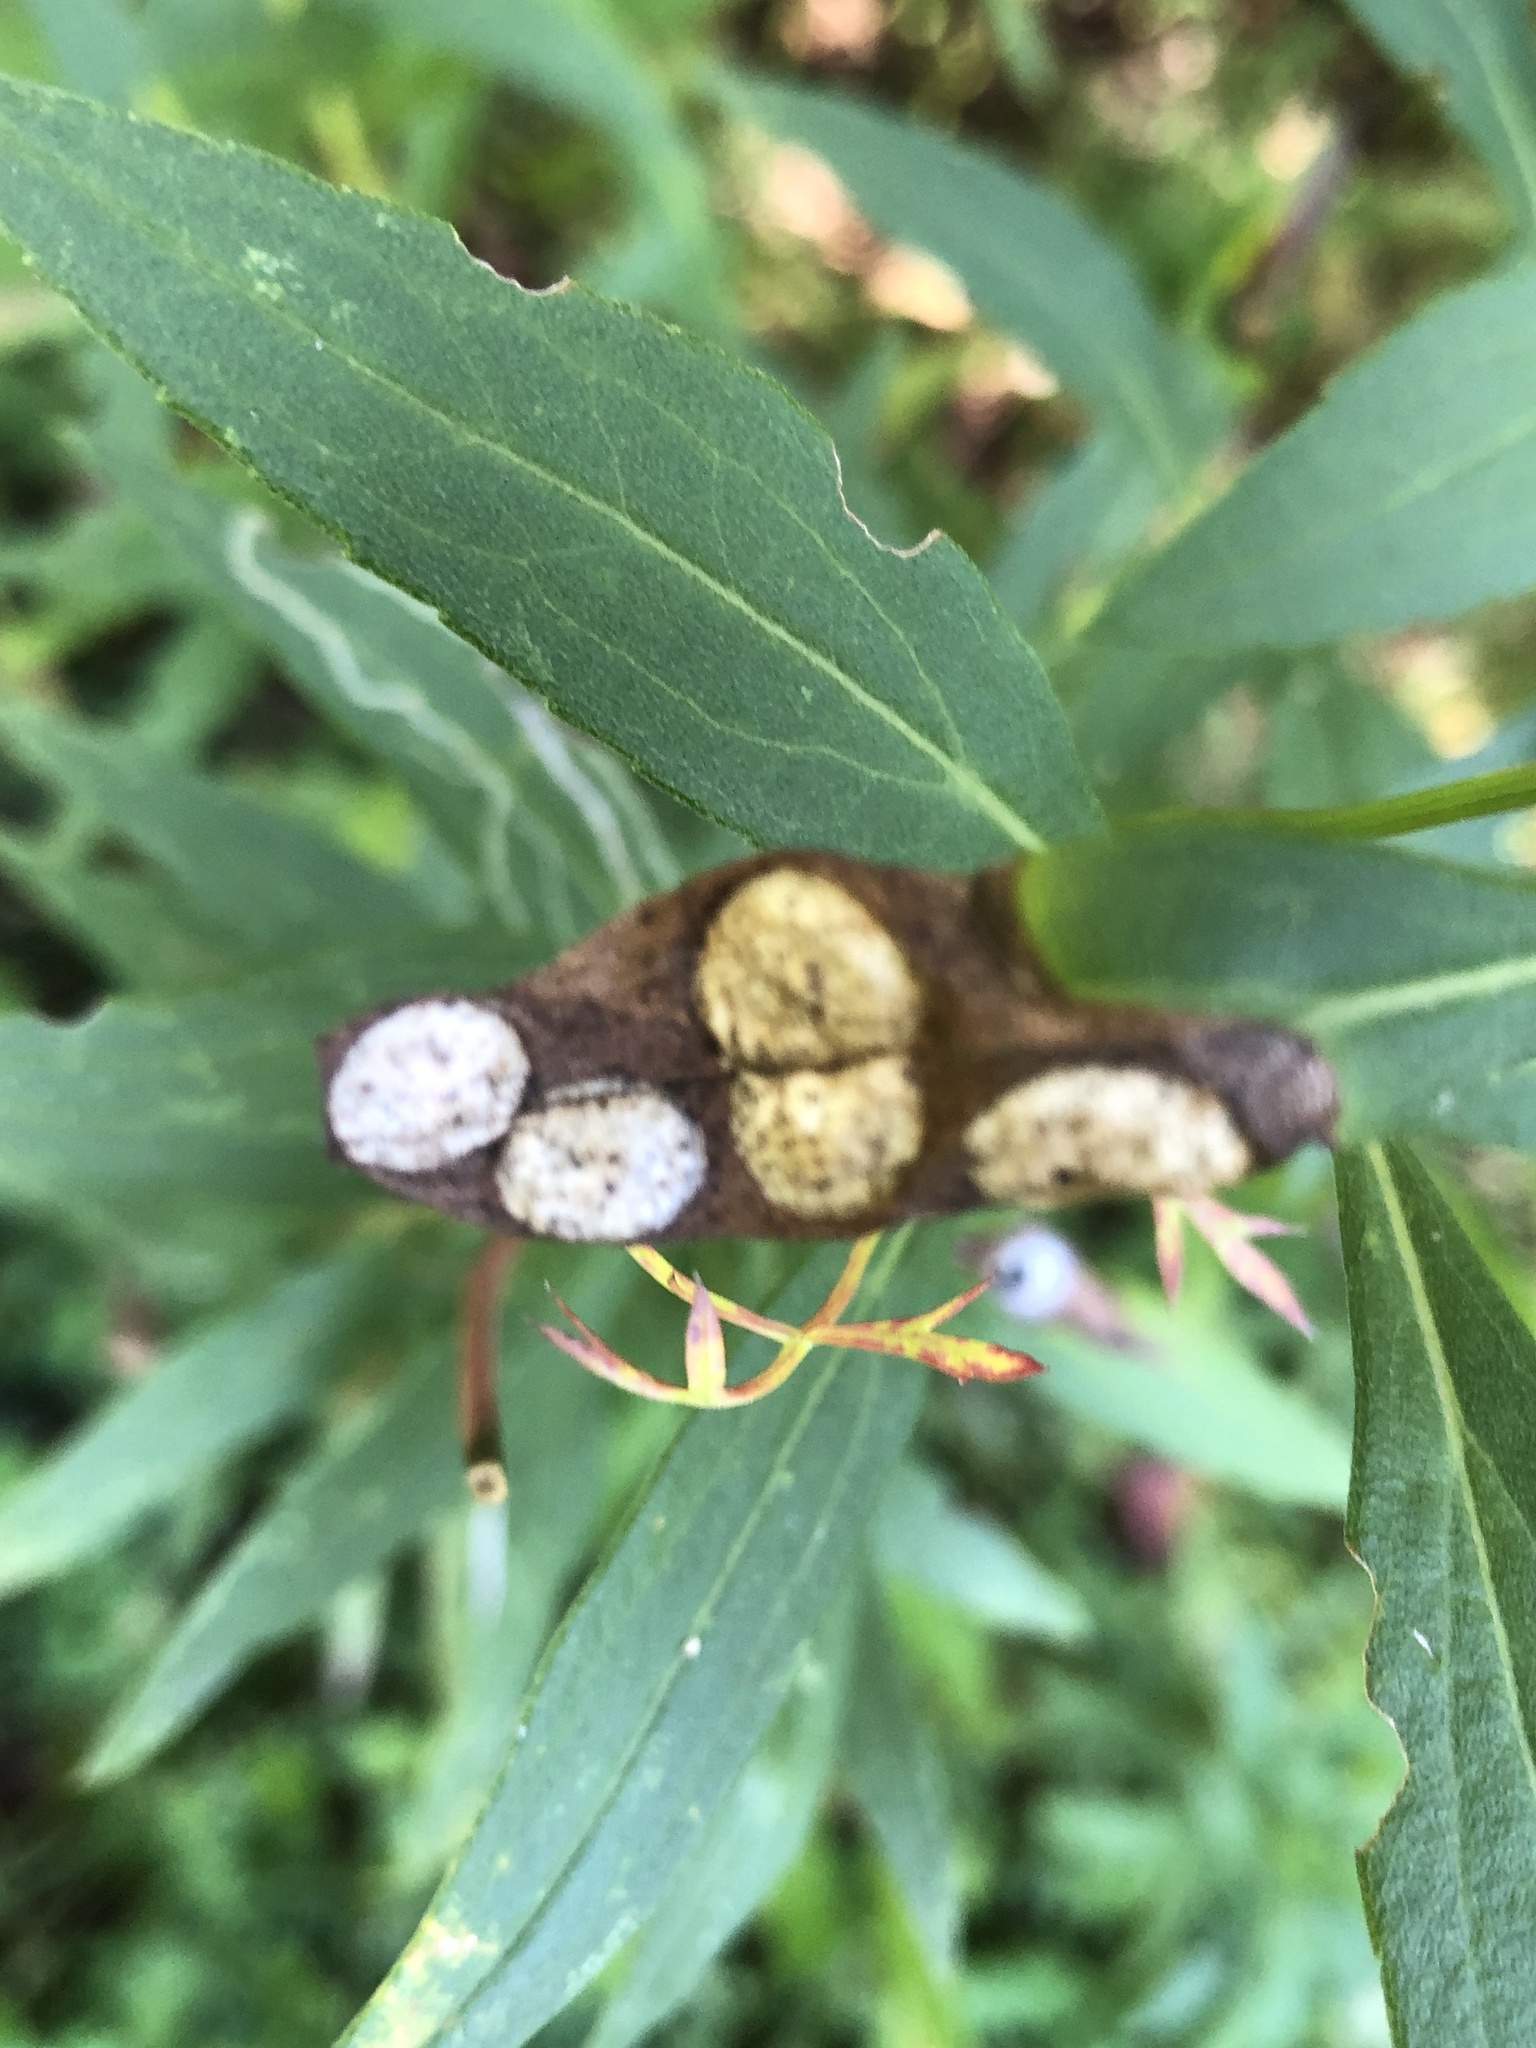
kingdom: Animalia
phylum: Arthropoda
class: Insecta
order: Diptera
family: Cecidomyiidae
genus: Asteromyia
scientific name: Asteromyia carbonifera
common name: Carbonifera goldenrod gall midge
